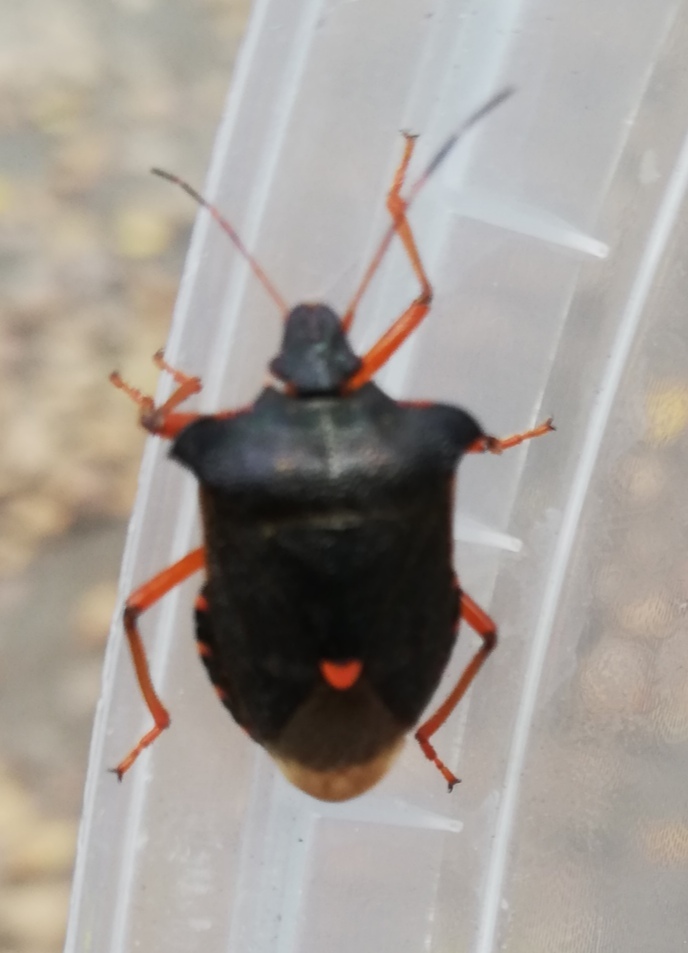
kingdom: Animalia
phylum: Arthropoda
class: Insecta
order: Hemiptera
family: Pentatomidae
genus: Pentatoma
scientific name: Pentatoma rufipes
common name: Forest bug
